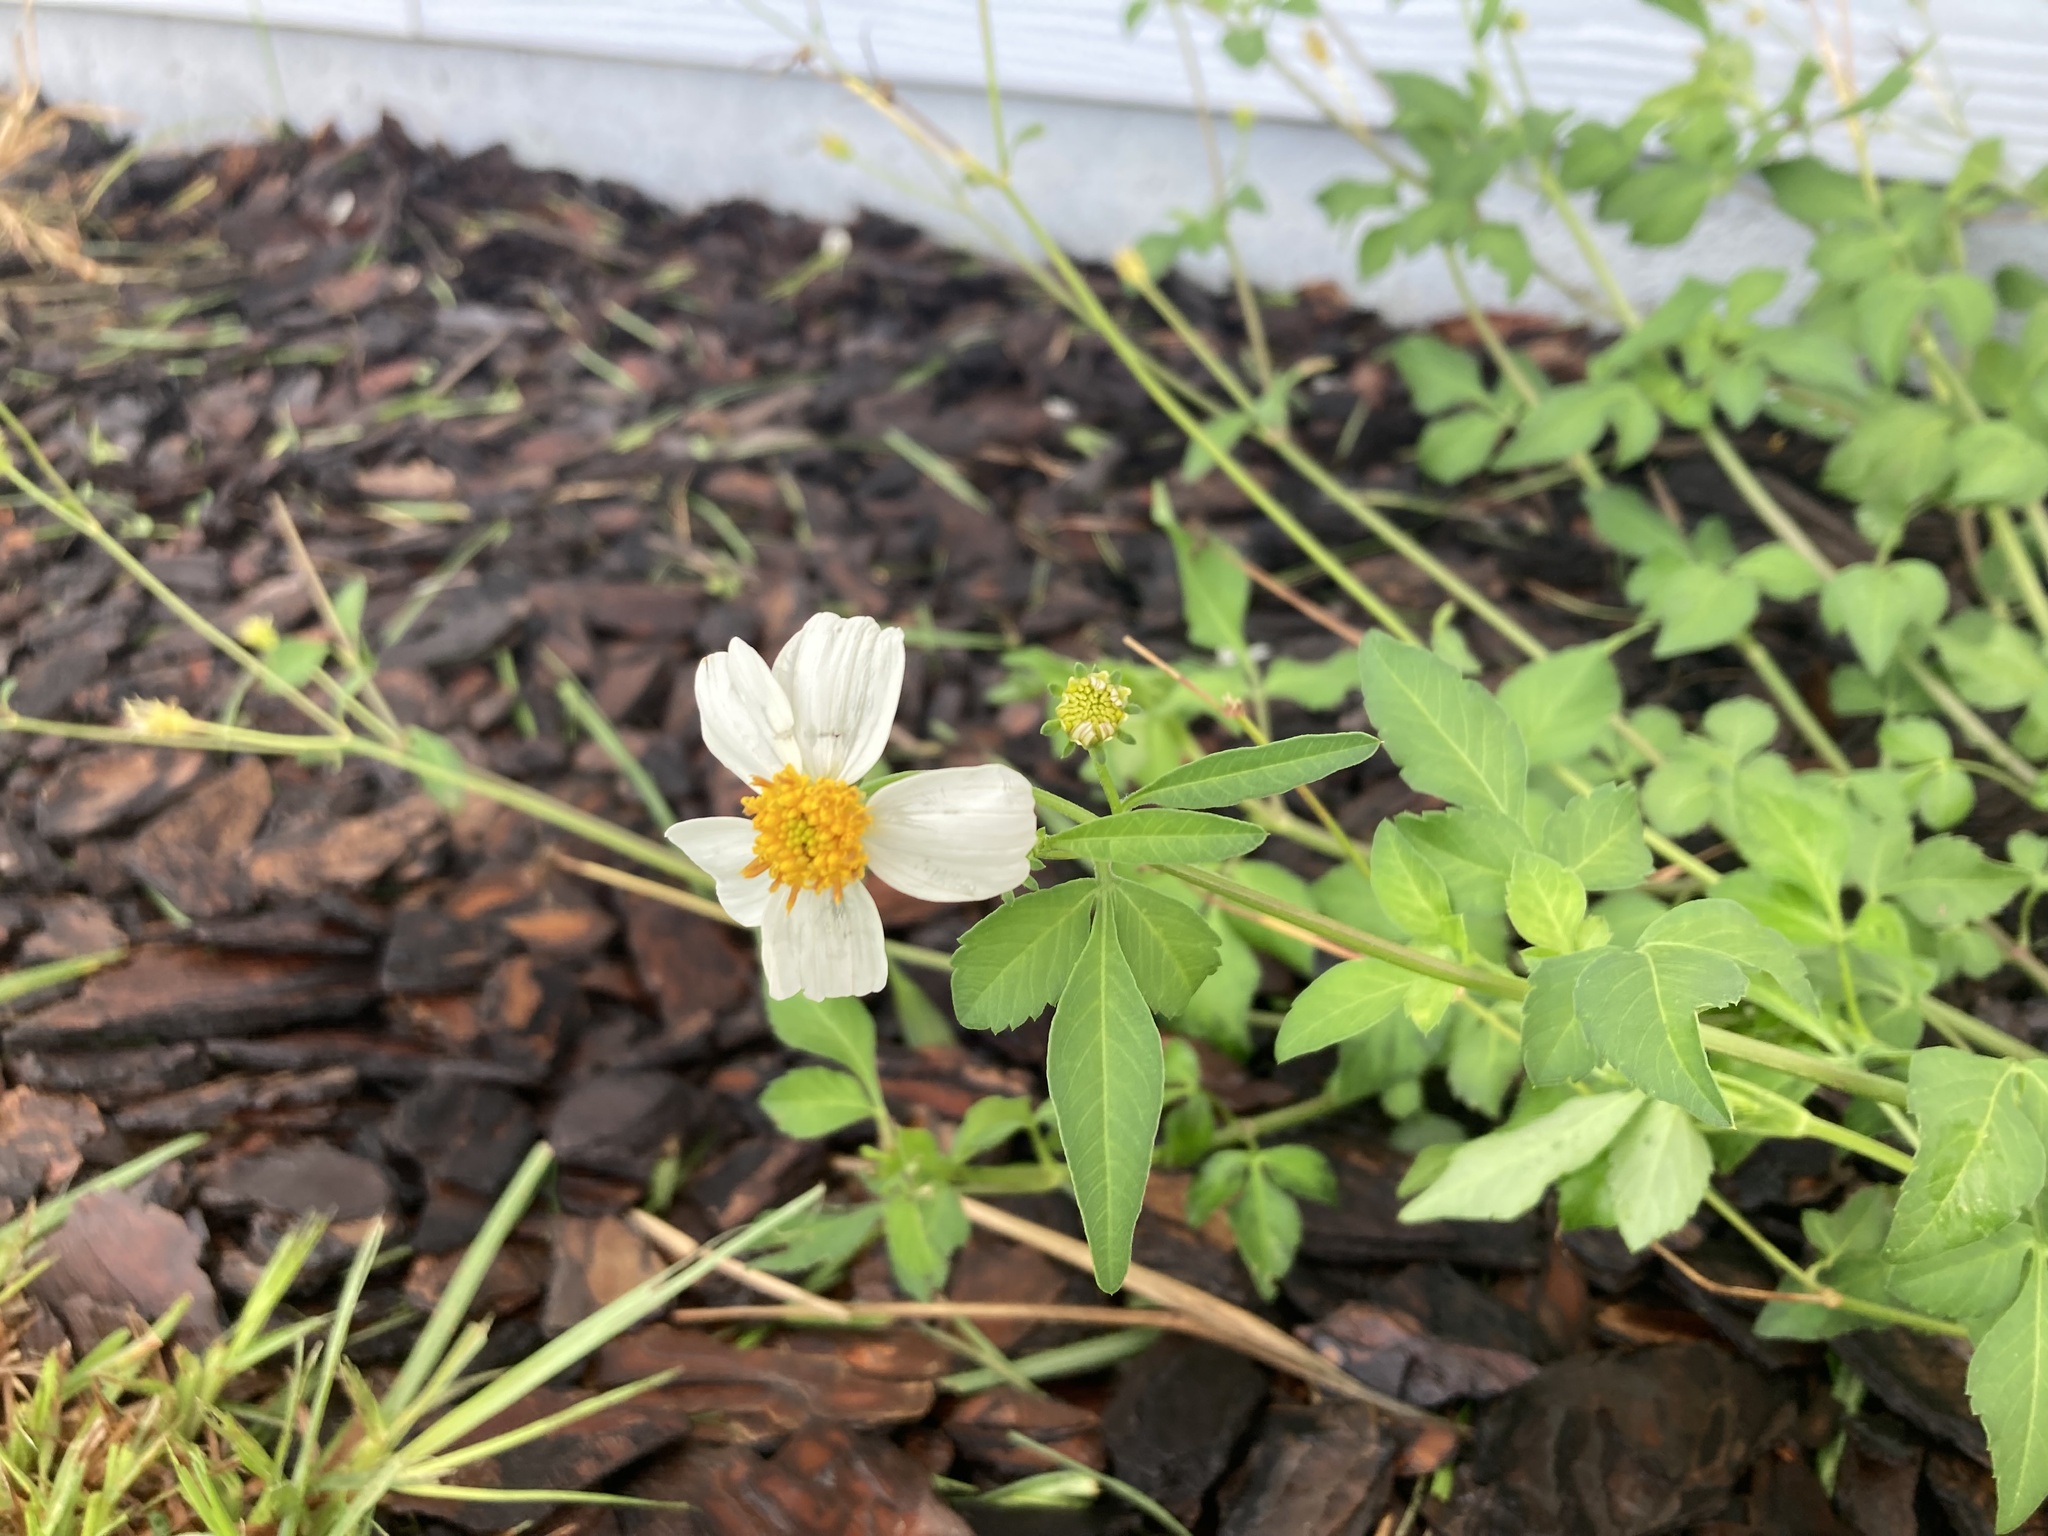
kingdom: Plantae
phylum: Tracheophyta
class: Magnoliopsida
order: Asterales
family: Asteraceae
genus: Bidens
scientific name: Bidens alba
